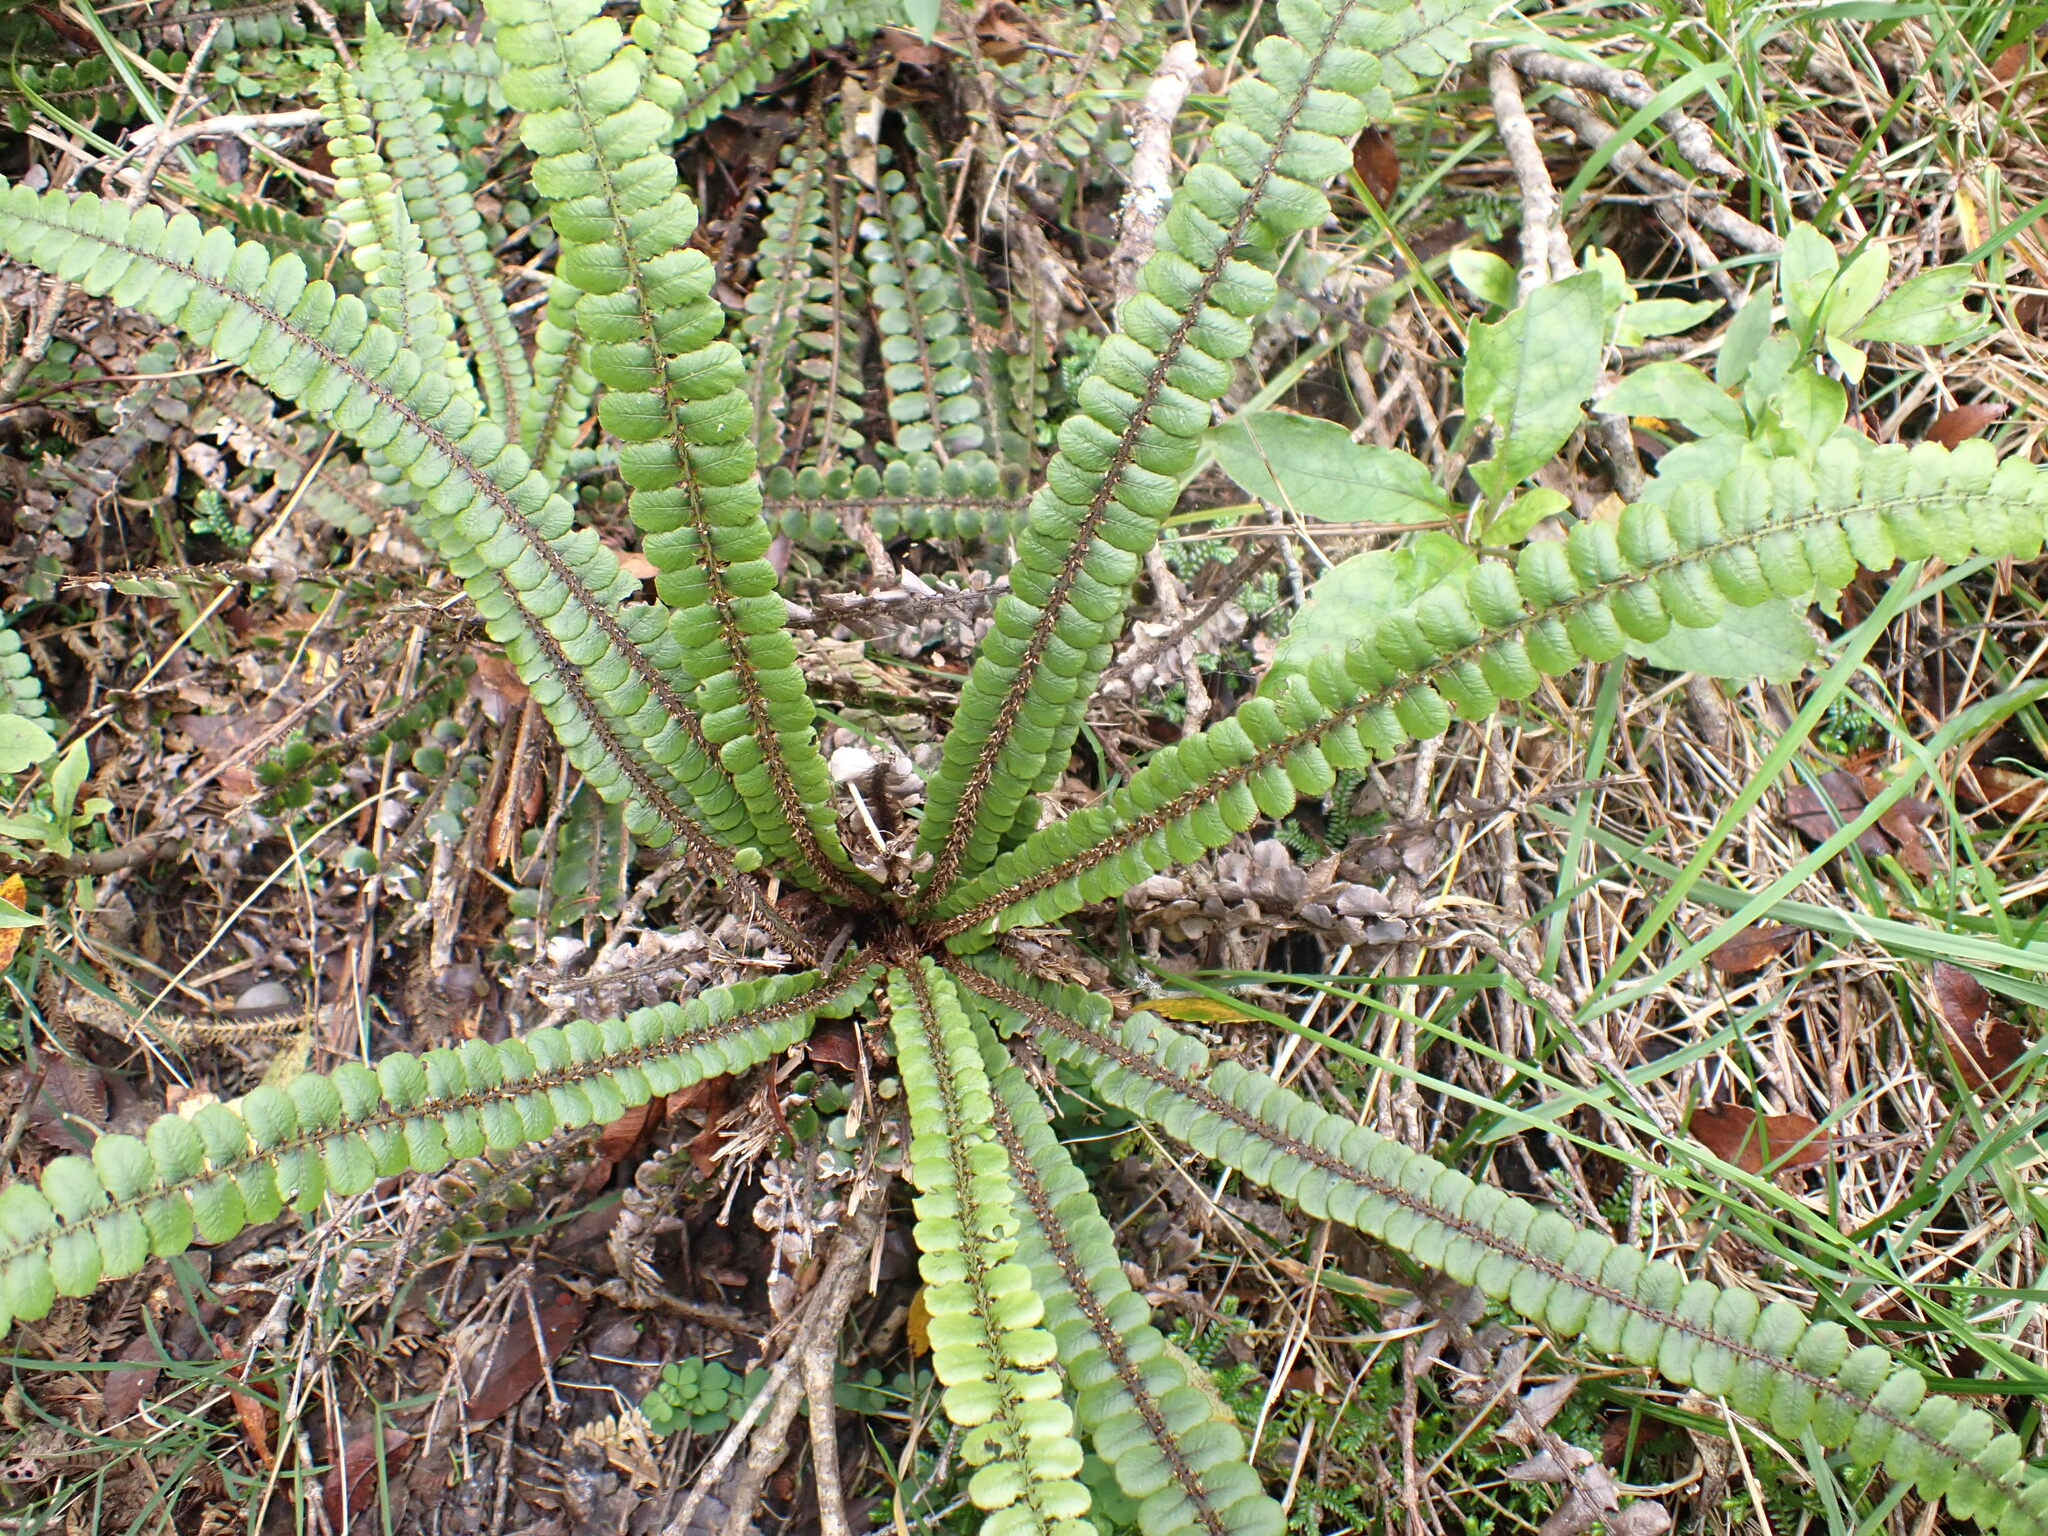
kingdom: Plantae
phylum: Tracheophyta
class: Polypodiopsida
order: Polypodiales
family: Blechnaceae
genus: Cranfillia
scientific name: Cranfillia fluviatilis
